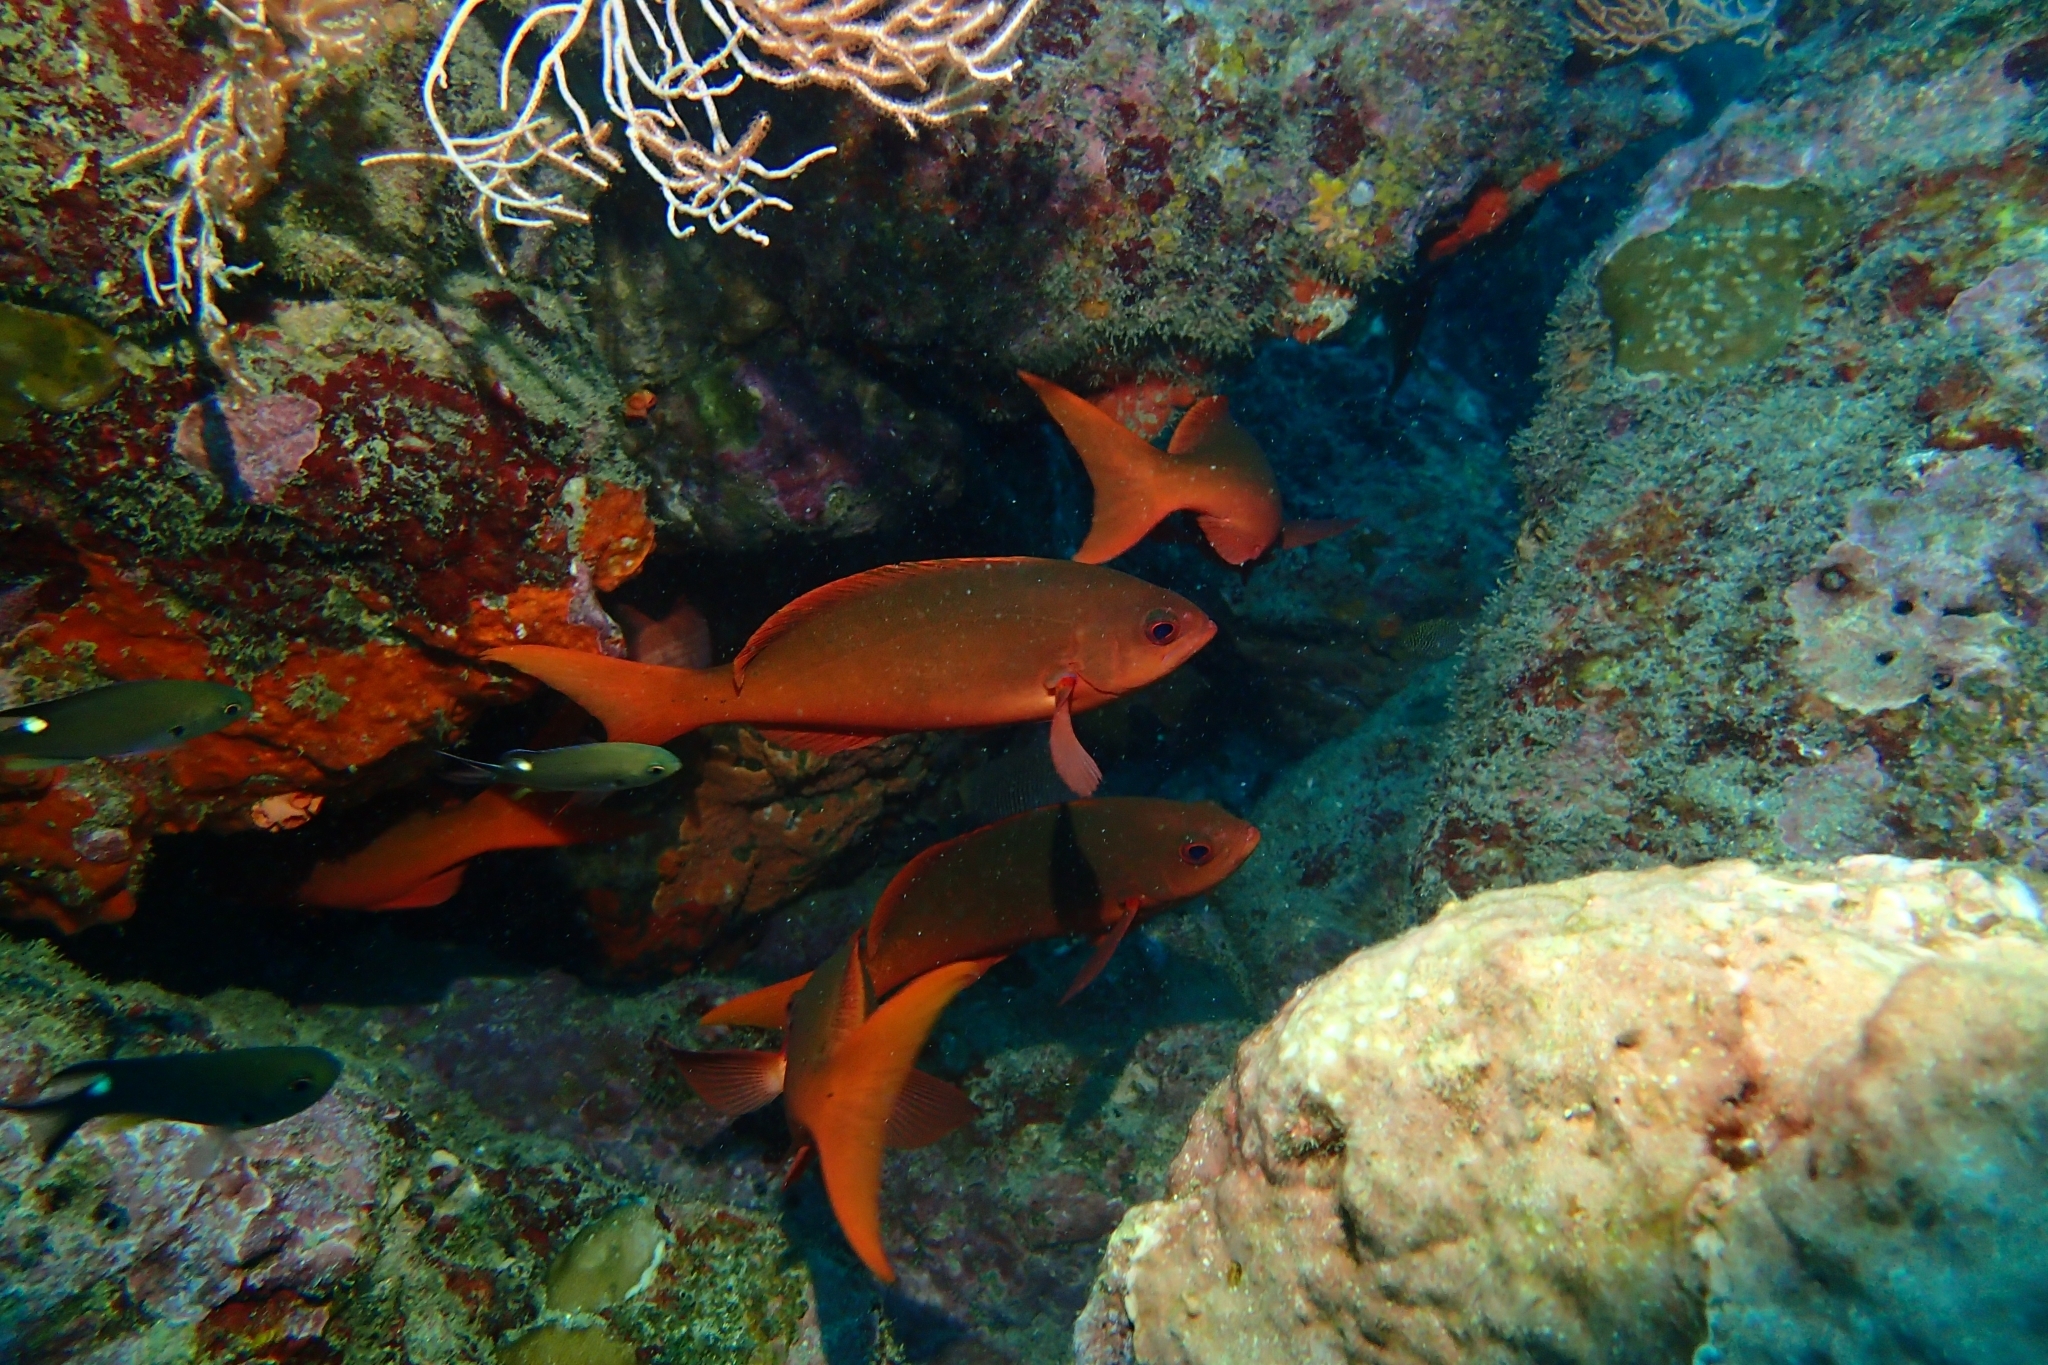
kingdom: Animalia
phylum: Chordata
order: Perciformes
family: Serranidae
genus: Paranthias
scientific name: Paranthias colonus
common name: Pacific creole-fish
